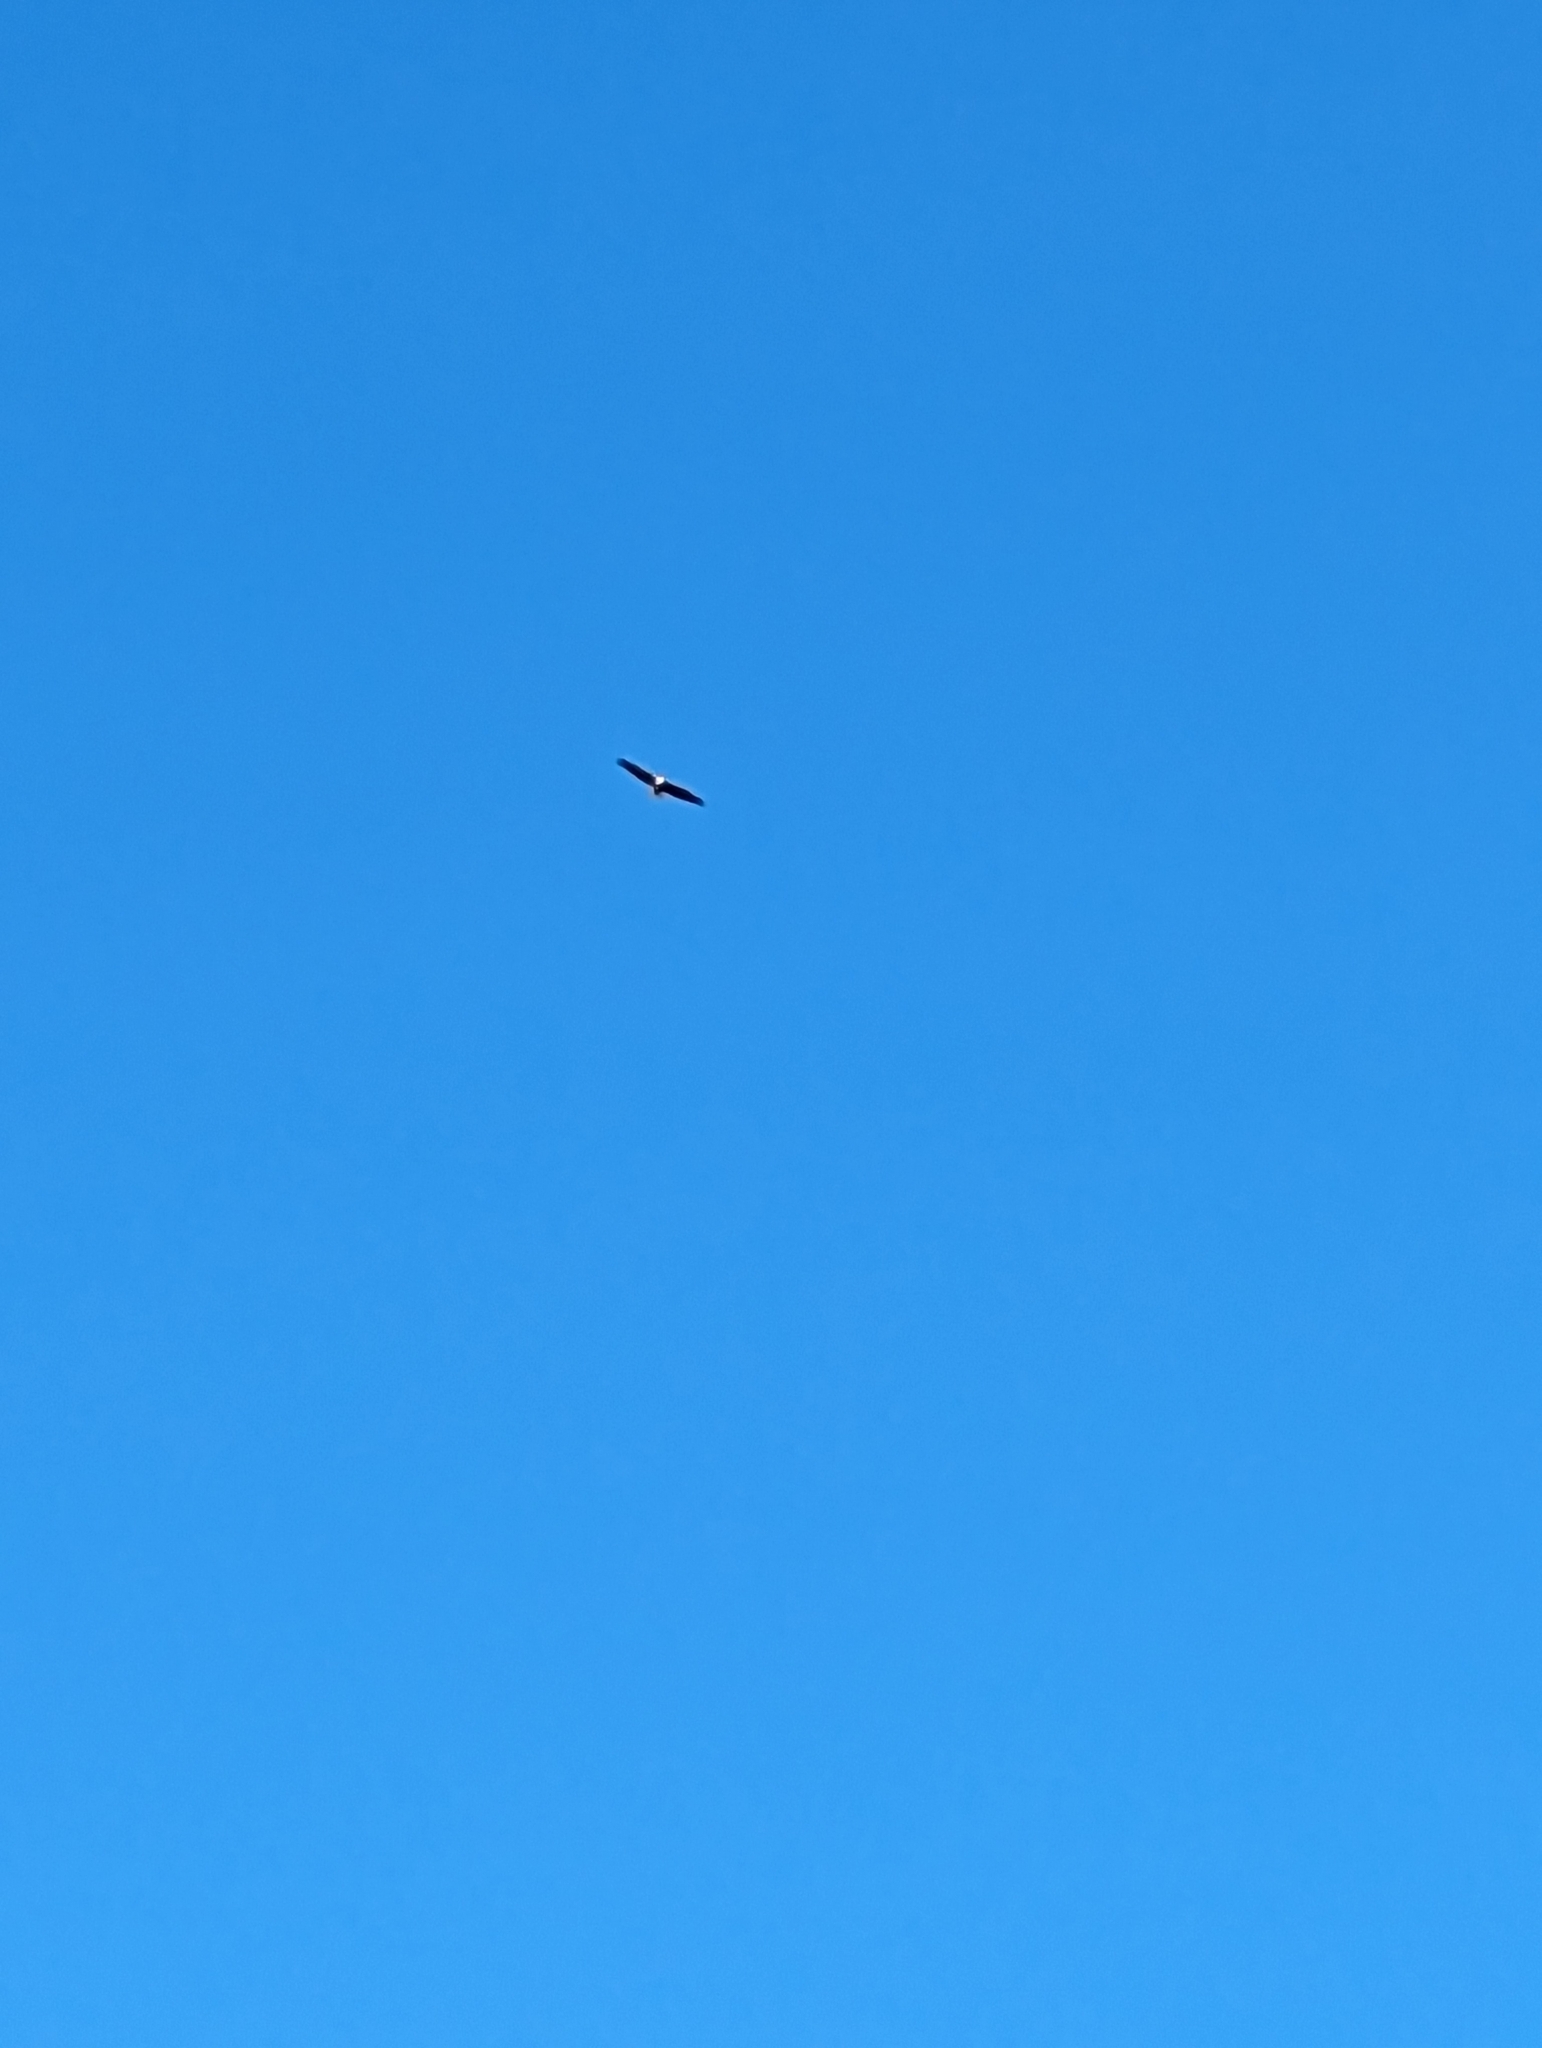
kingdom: Animalia
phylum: Chordata
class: Aves
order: Accipitriformes
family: Accipitridae
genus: Haliaeetus
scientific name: Haliaeetus leucocephalus
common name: Bald eagle
